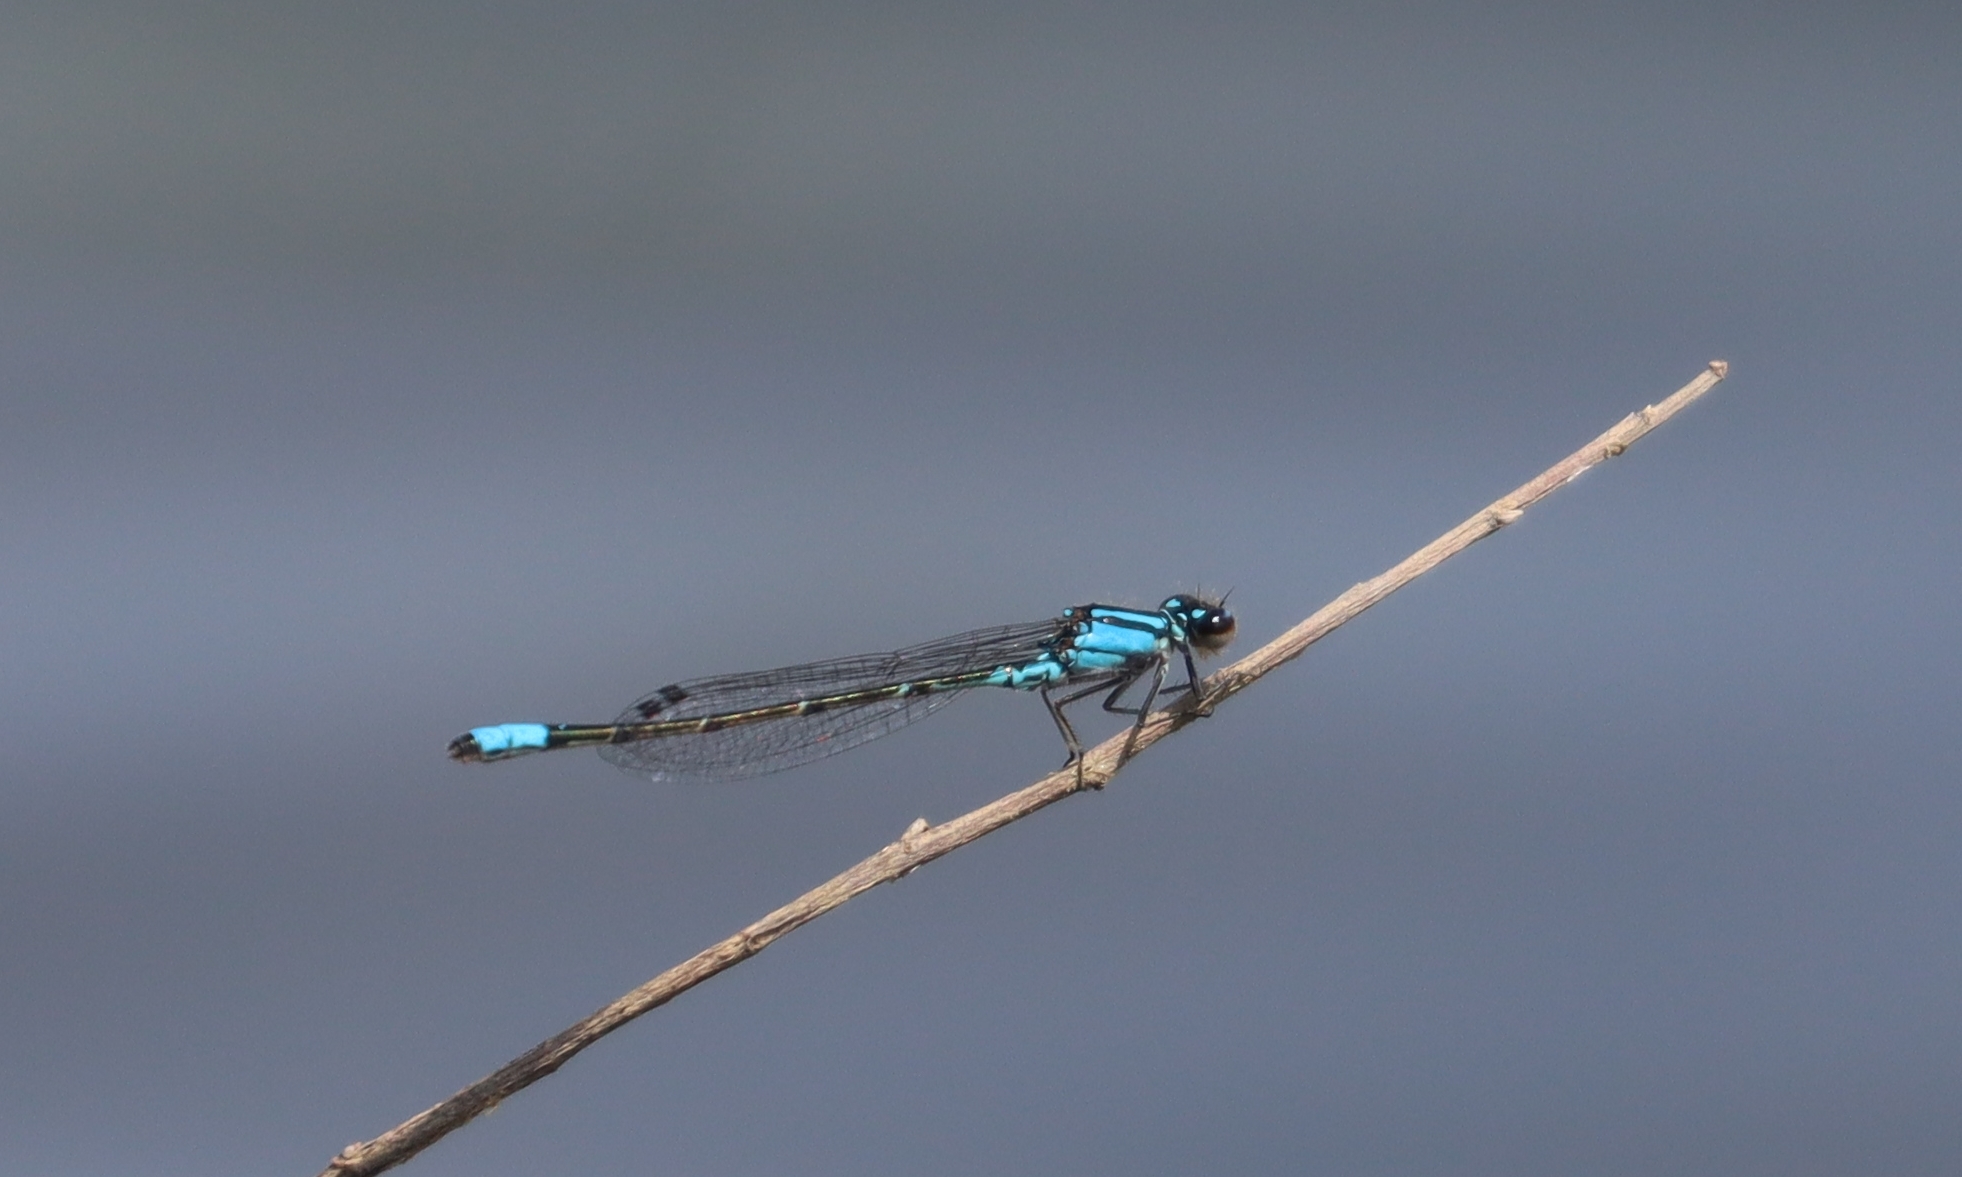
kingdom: Animalia
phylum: Arthropoda
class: Insecta
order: Odonata
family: Coenagrionidae
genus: Enallagma
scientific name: Enallagma geminatum
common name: Skimming bluet
